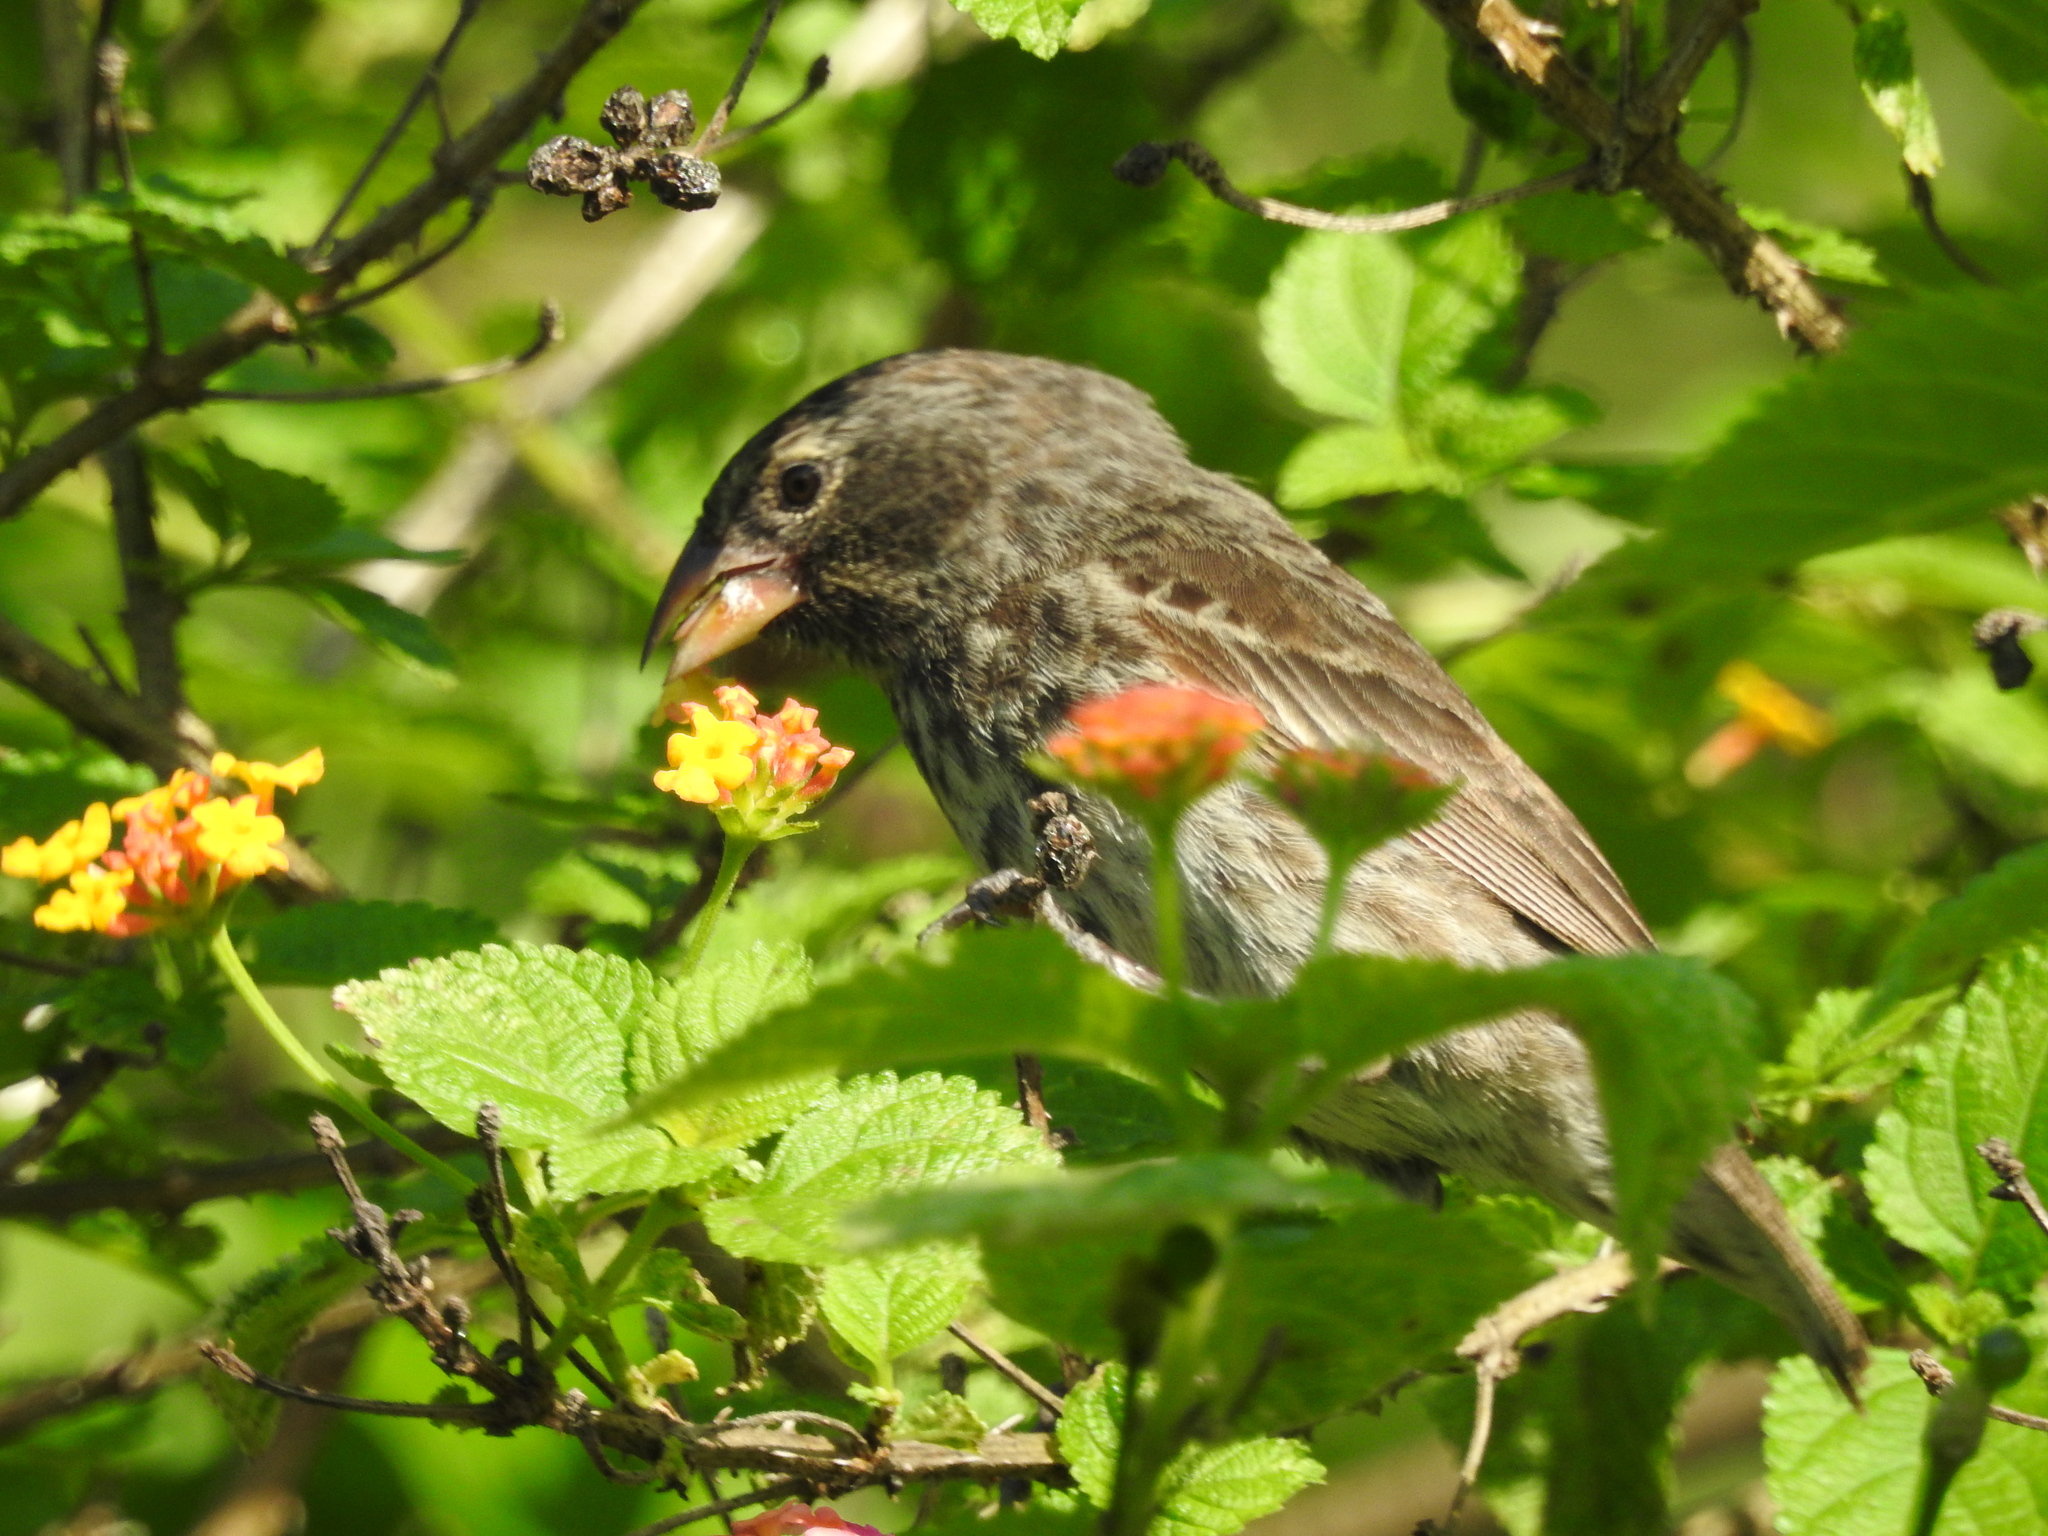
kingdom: Animalia
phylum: Chordata
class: Aves
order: Passeriformes
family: Thraupidae
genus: Geospiza
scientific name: Geospiza fuliginosa
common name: Small ground finch
